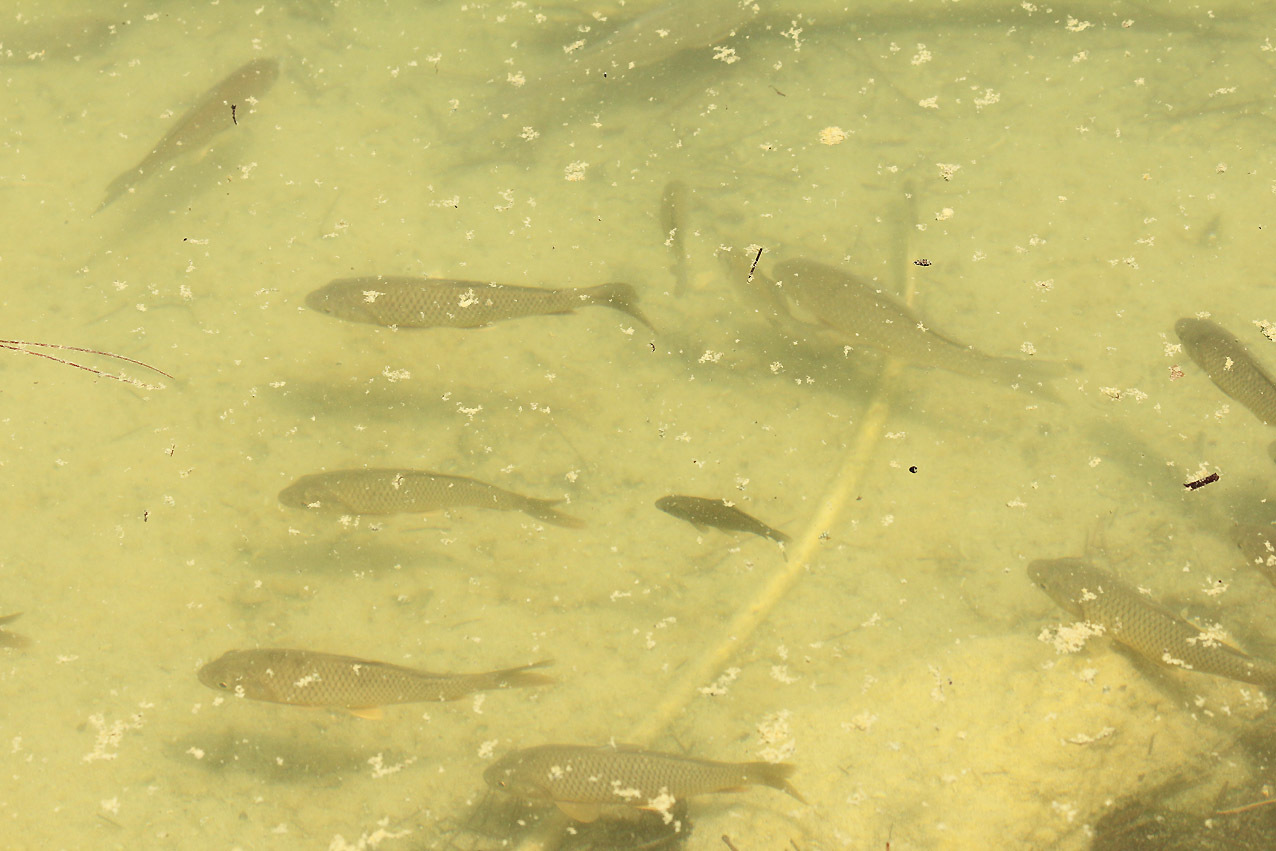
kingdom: Animalia
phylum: Chordata
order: Cypriniformes
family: Cyprinidae
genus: Carassius
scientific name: Carassius auratus
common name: Goldfish
